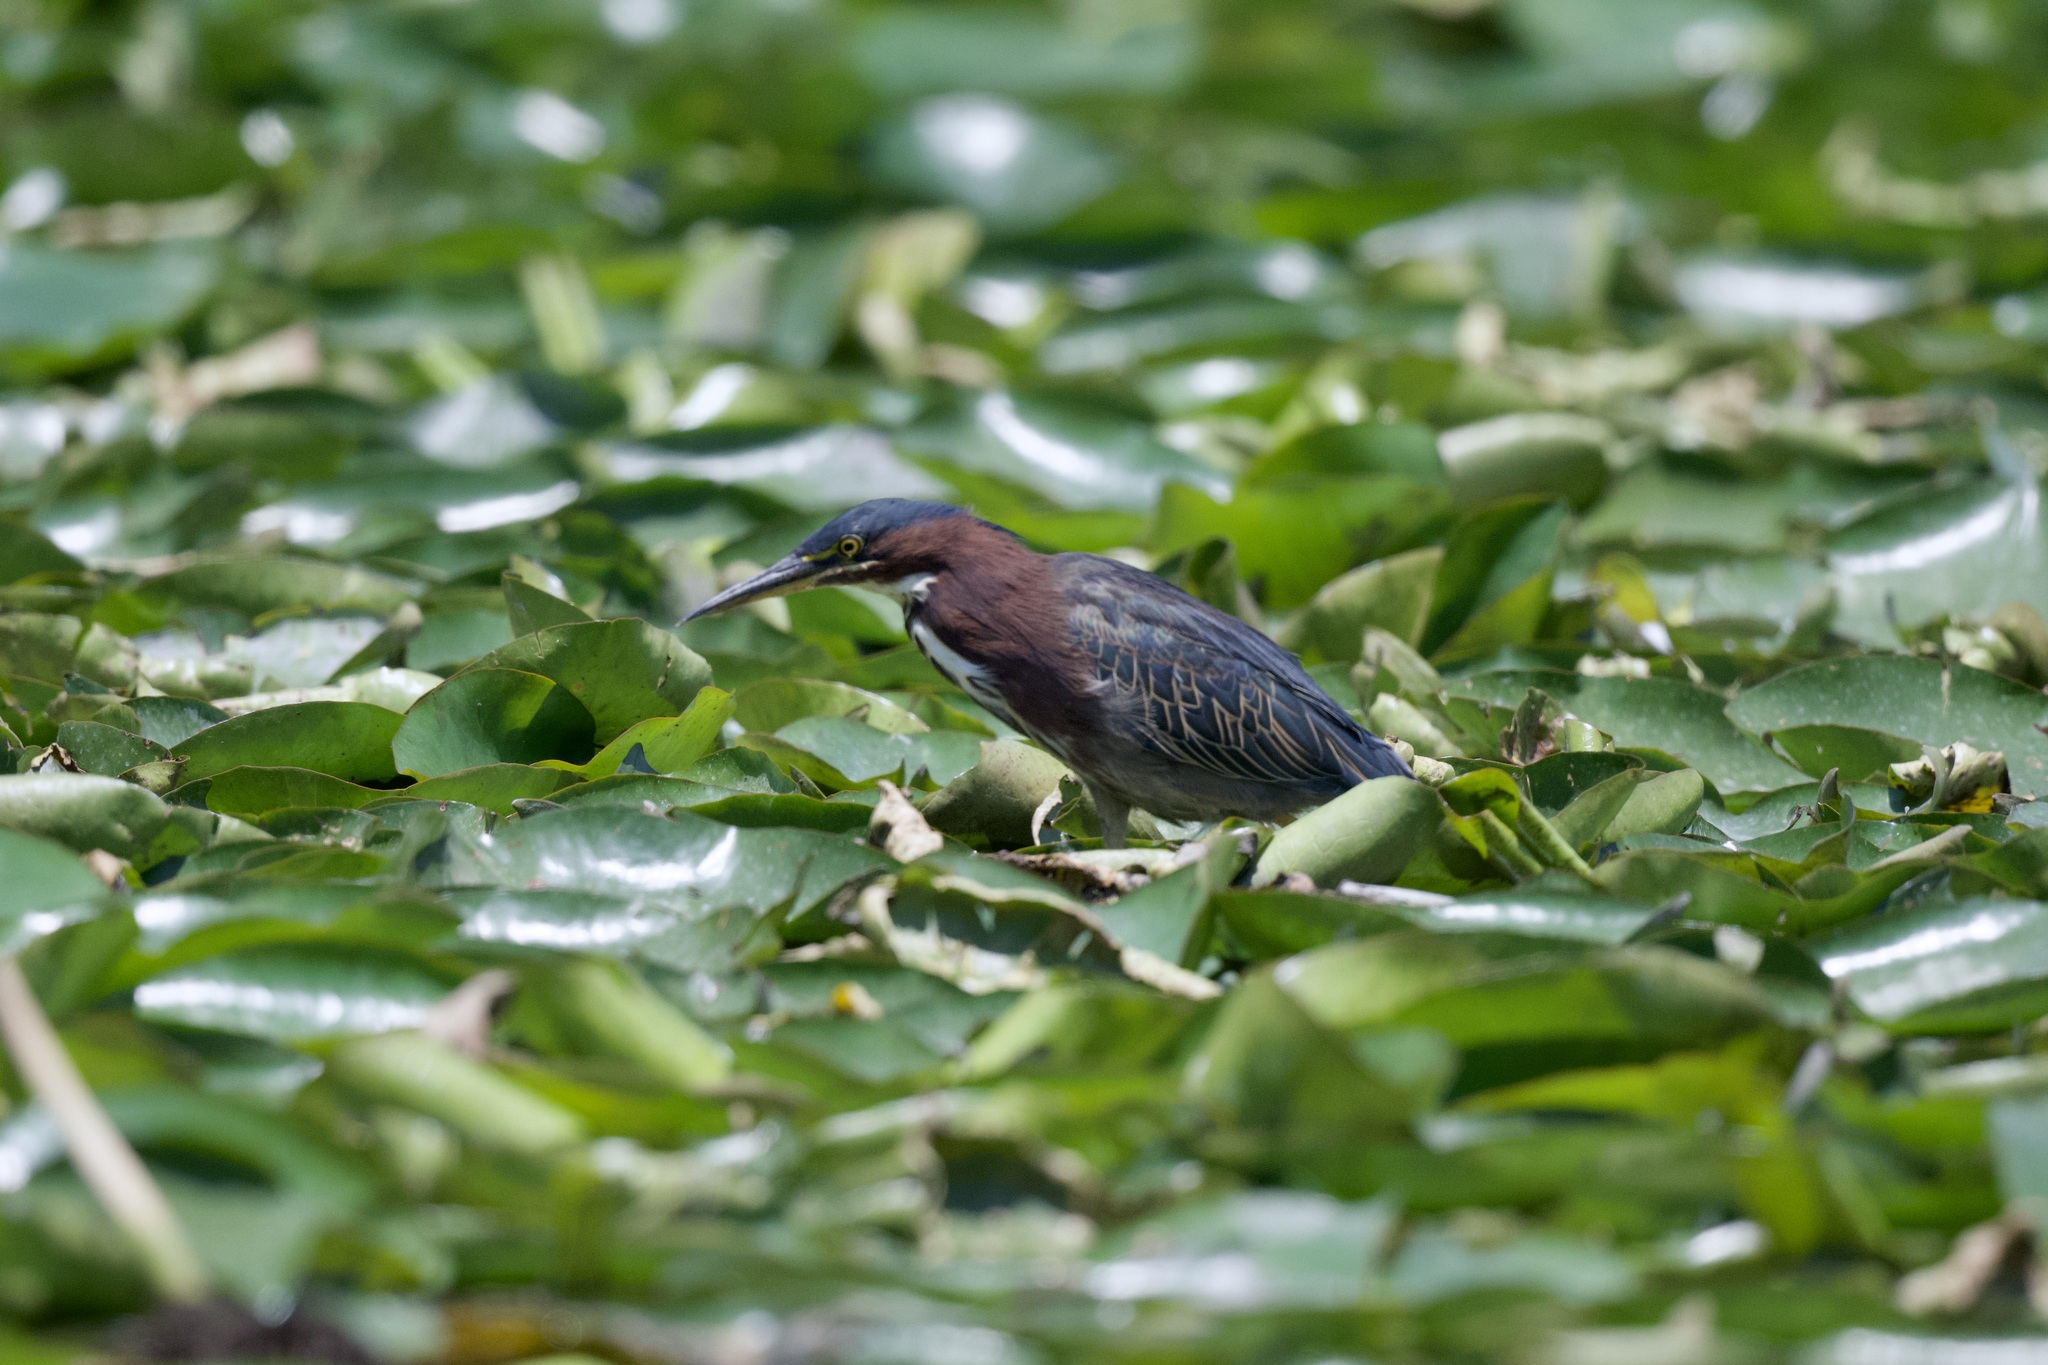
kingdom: Animalia
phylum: Chordata
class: Aves
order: Pelecaniformes
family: Ardeidae
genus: Butorides
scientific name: Butorides virescens
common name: Green heron
